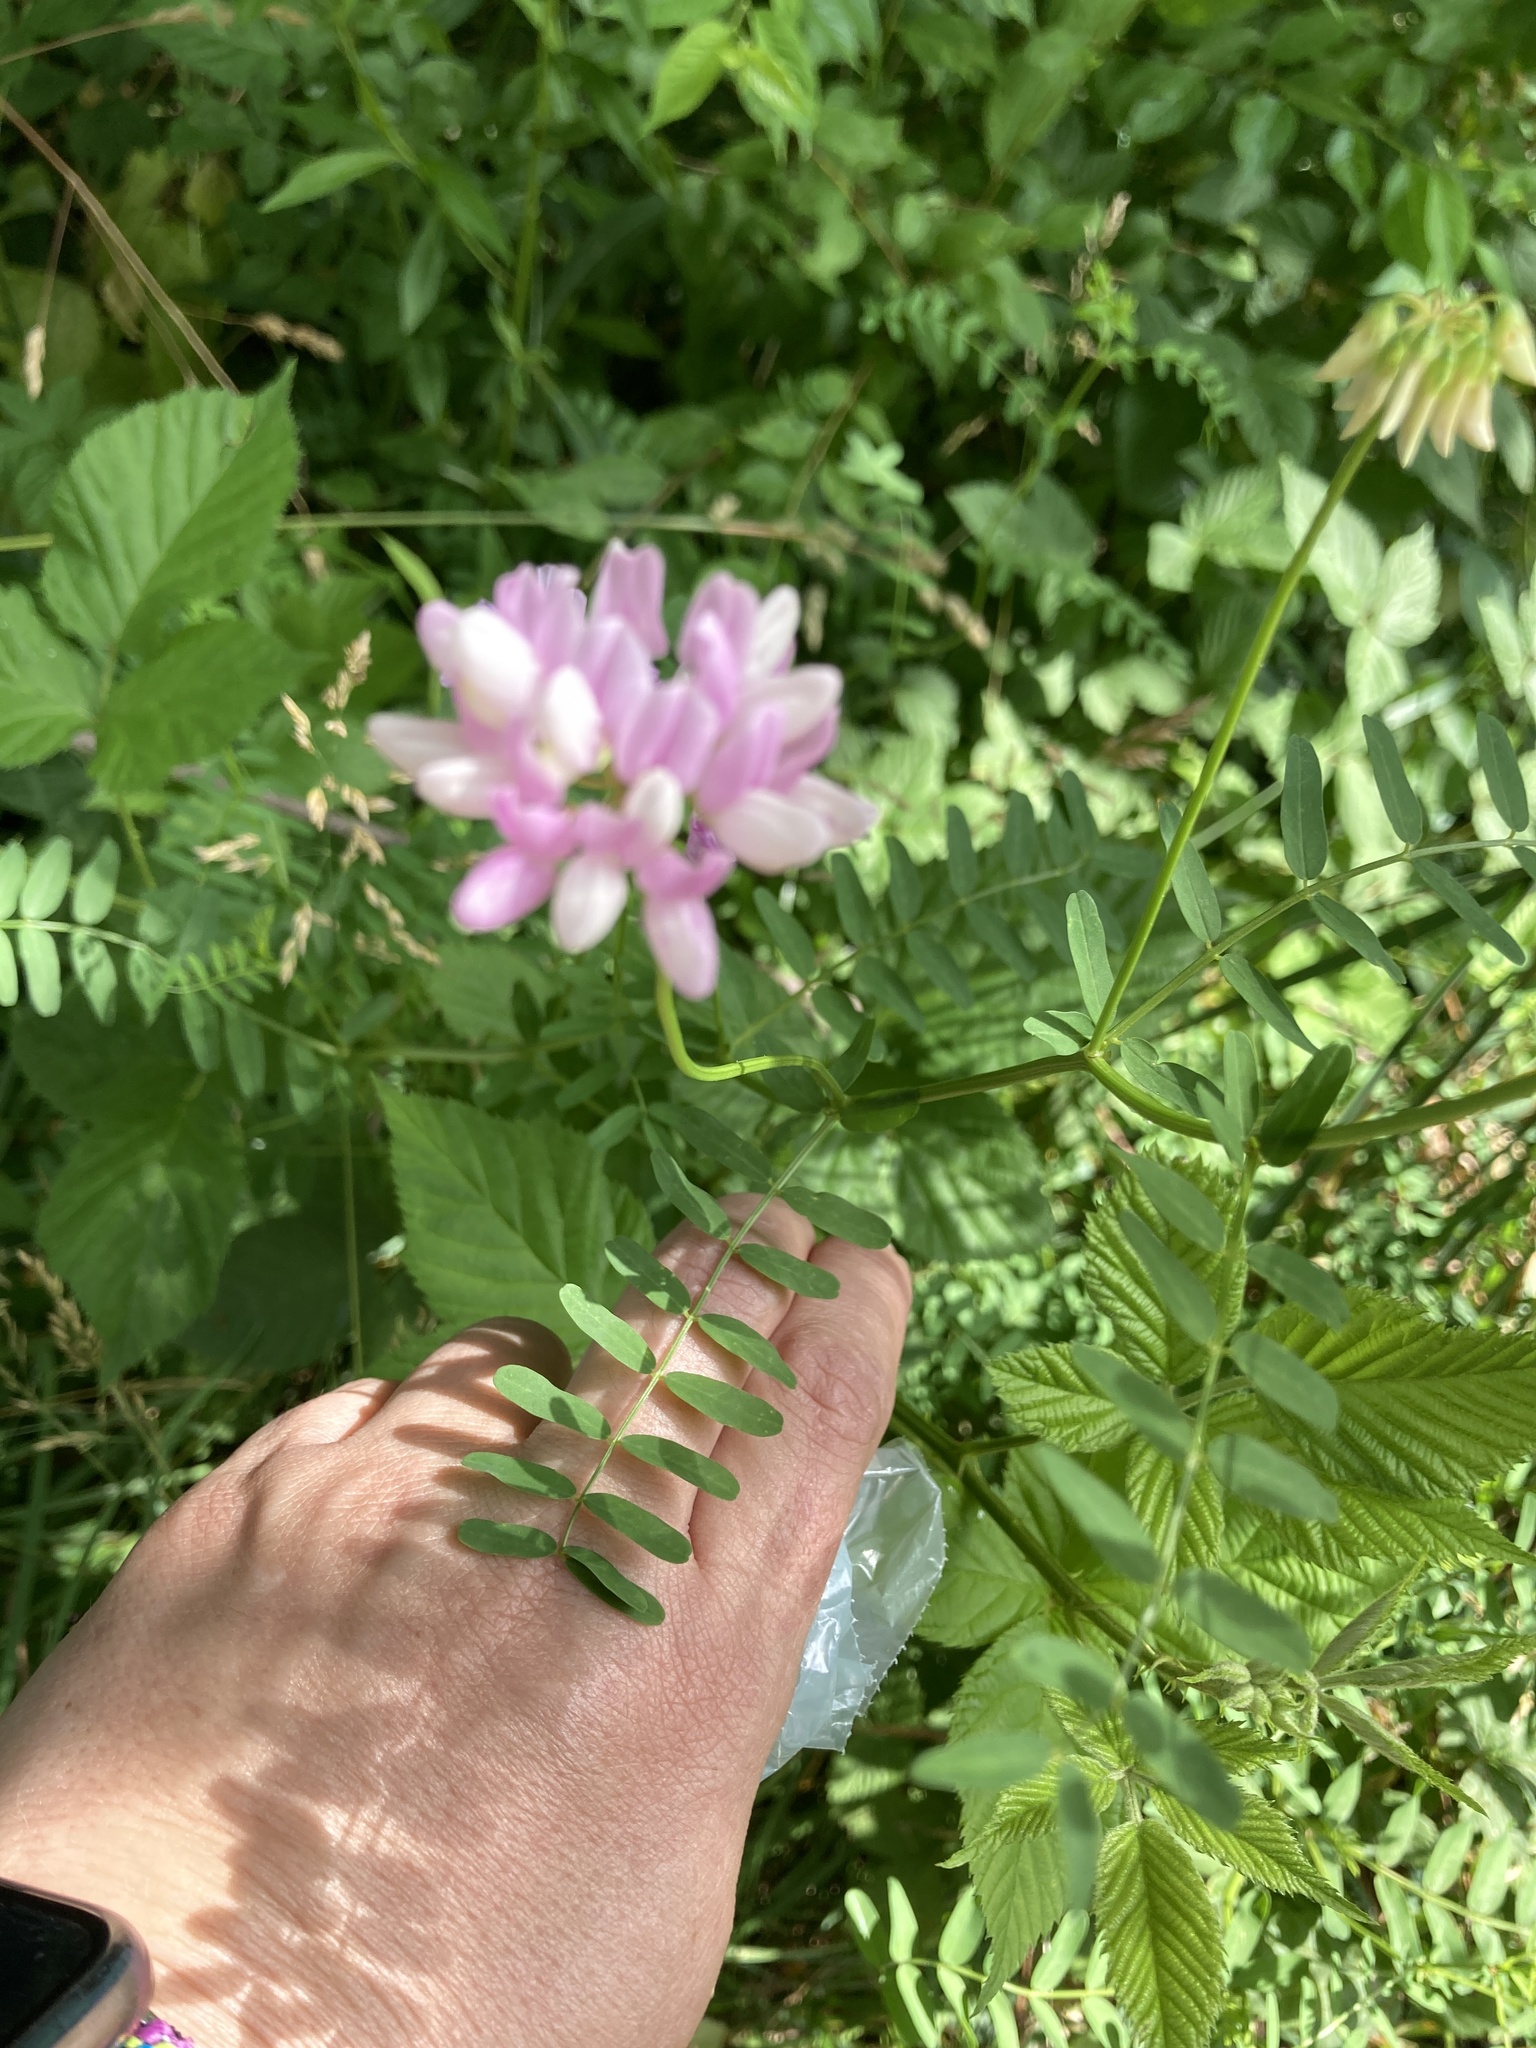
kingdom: Plantae
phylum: Tracheophyta
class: Magnoliopsida
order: Fabales
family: Fabaceae
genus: Coronilla
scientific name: Coronilla varia
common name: Crownvetch
